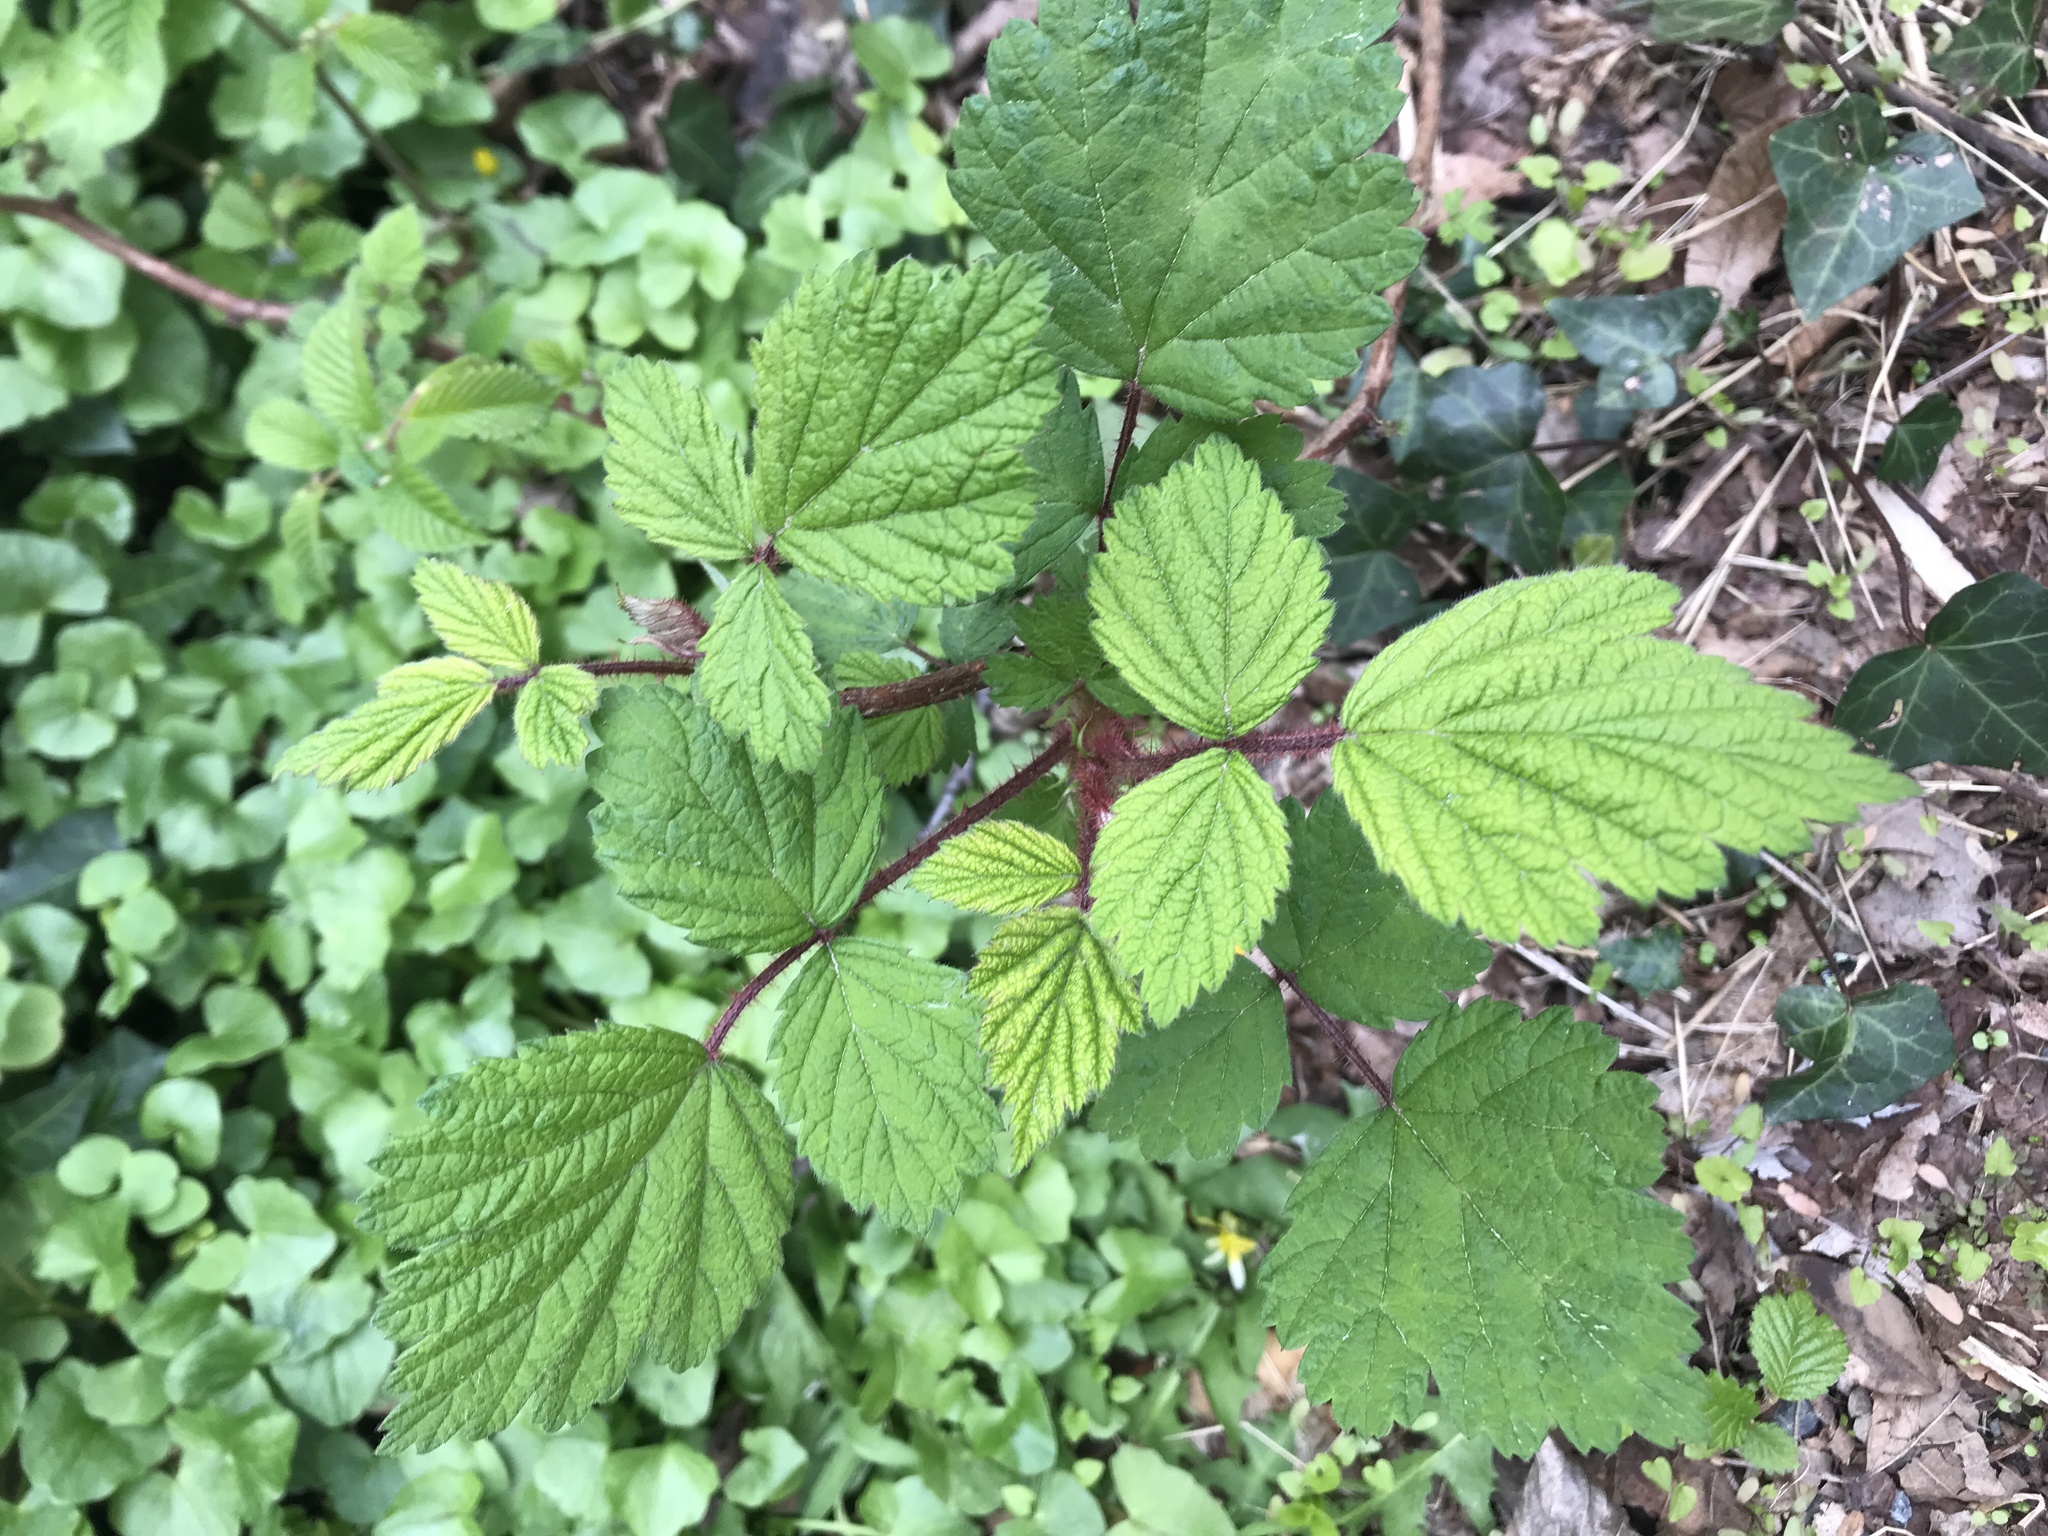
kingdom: Plantae
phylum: Tracheophyta
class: Magnoliopsida
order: Rosales
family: Rosaceae
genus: Rubus
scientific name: Rubus phoenicolasius
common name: Japanese wineberry
